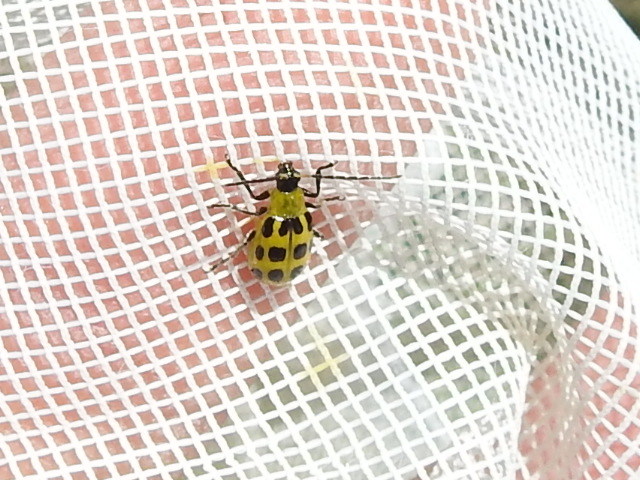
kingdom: Animalia
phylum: Arthropoda
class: Insecta
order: Coleoptera
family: Chrysomelidae
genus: Diabrotica
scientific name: Diabrotica undecimpunctata
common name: Spotted cucumber beetle
